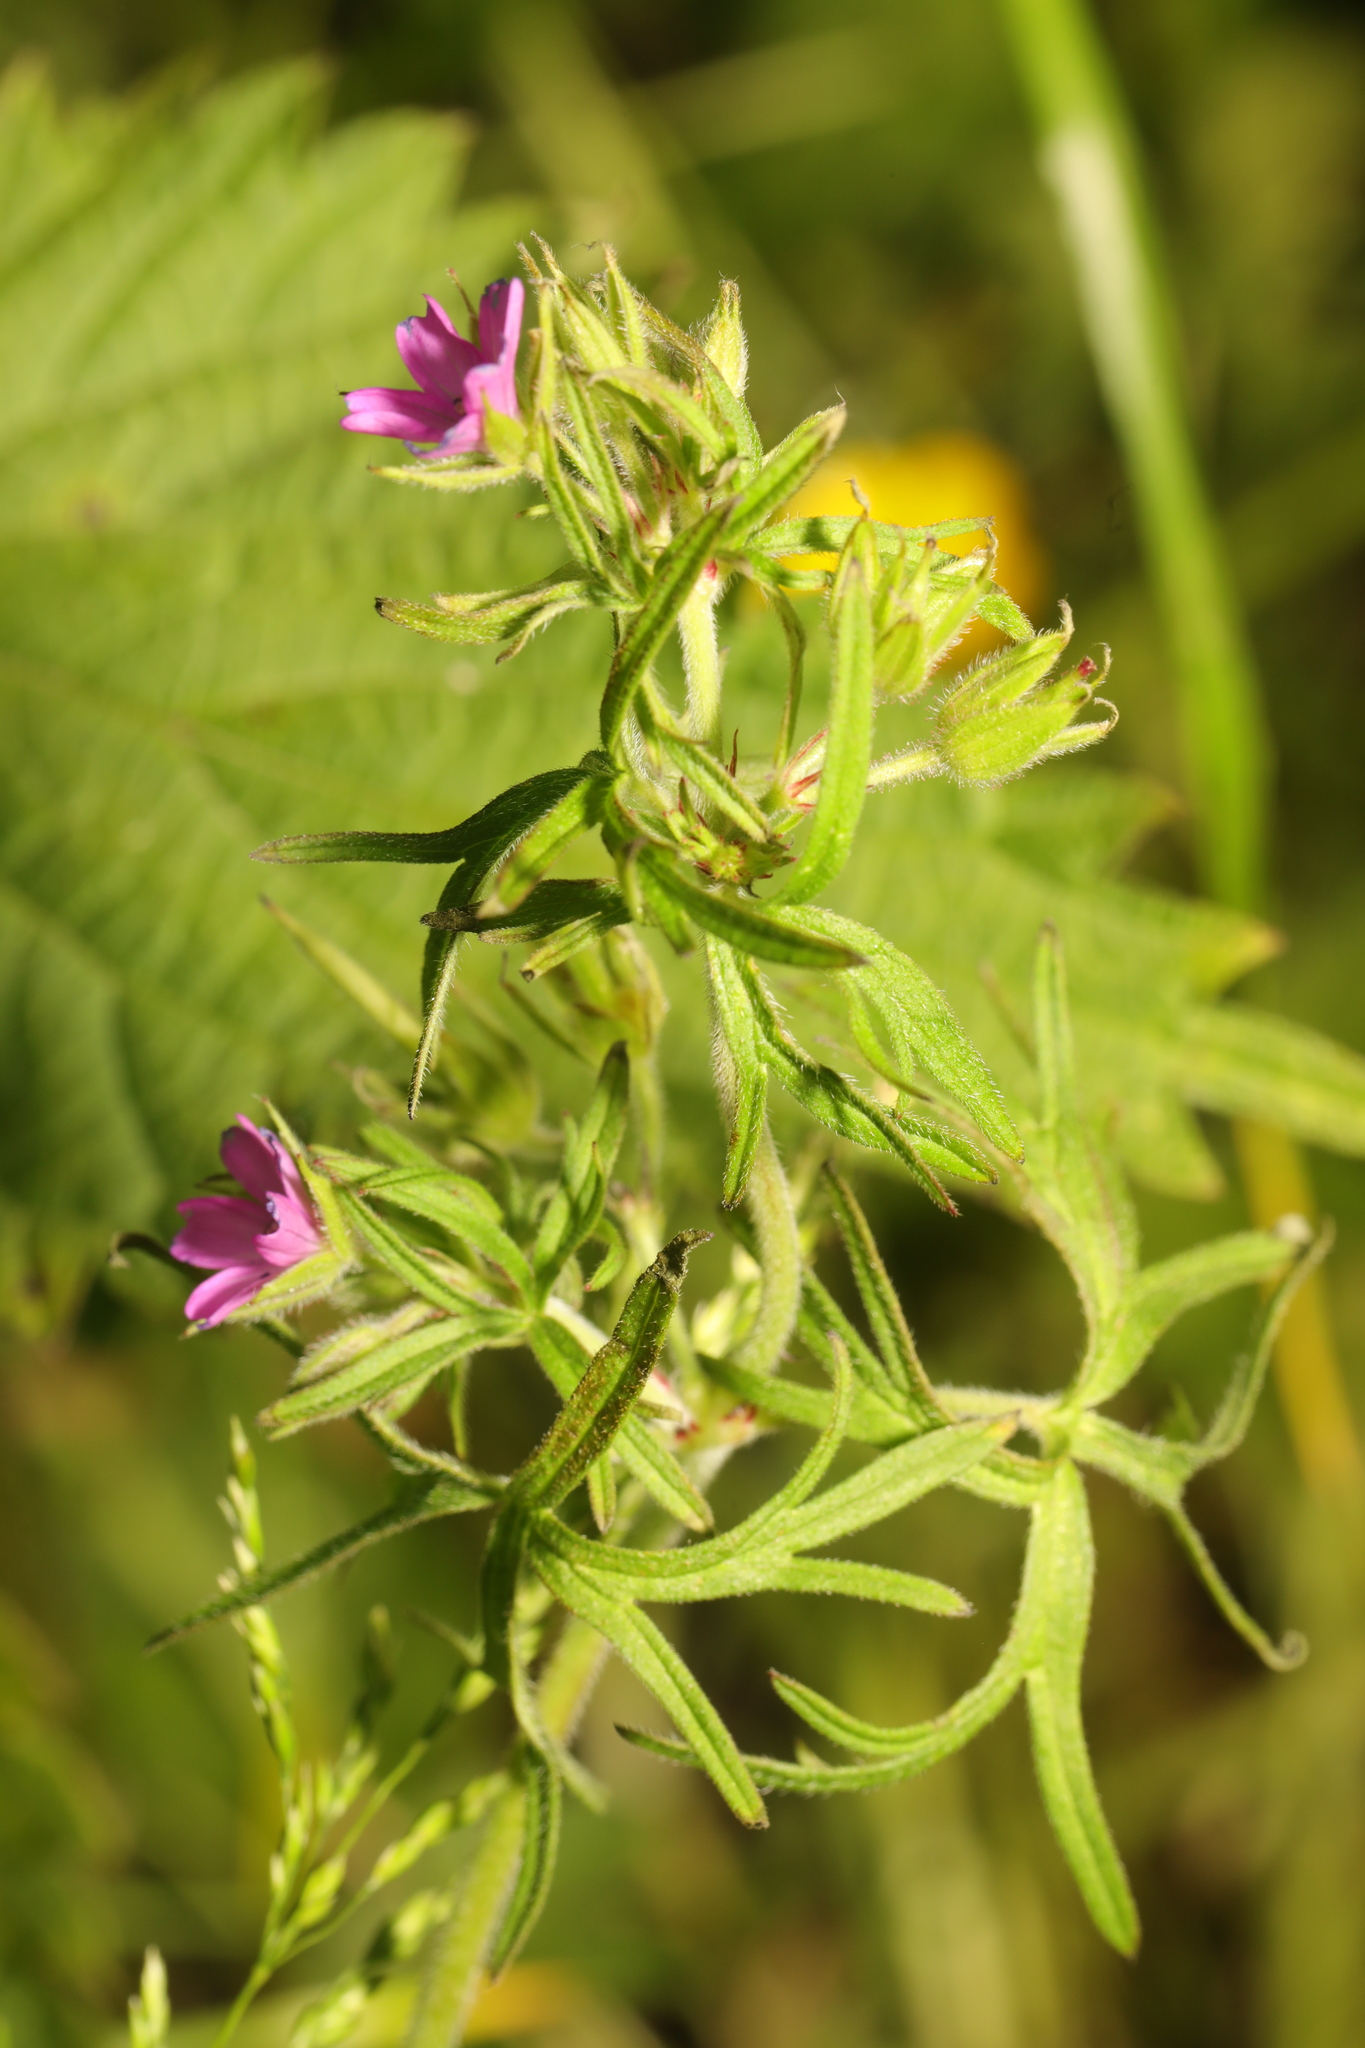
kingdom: Plantae
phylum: Tracheophyta
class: Magnoliopsida
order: Geraniales
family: Geraniaceae
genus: Geranium
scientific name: Geranium dissectum
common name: Cut-leaved crane's-bill
